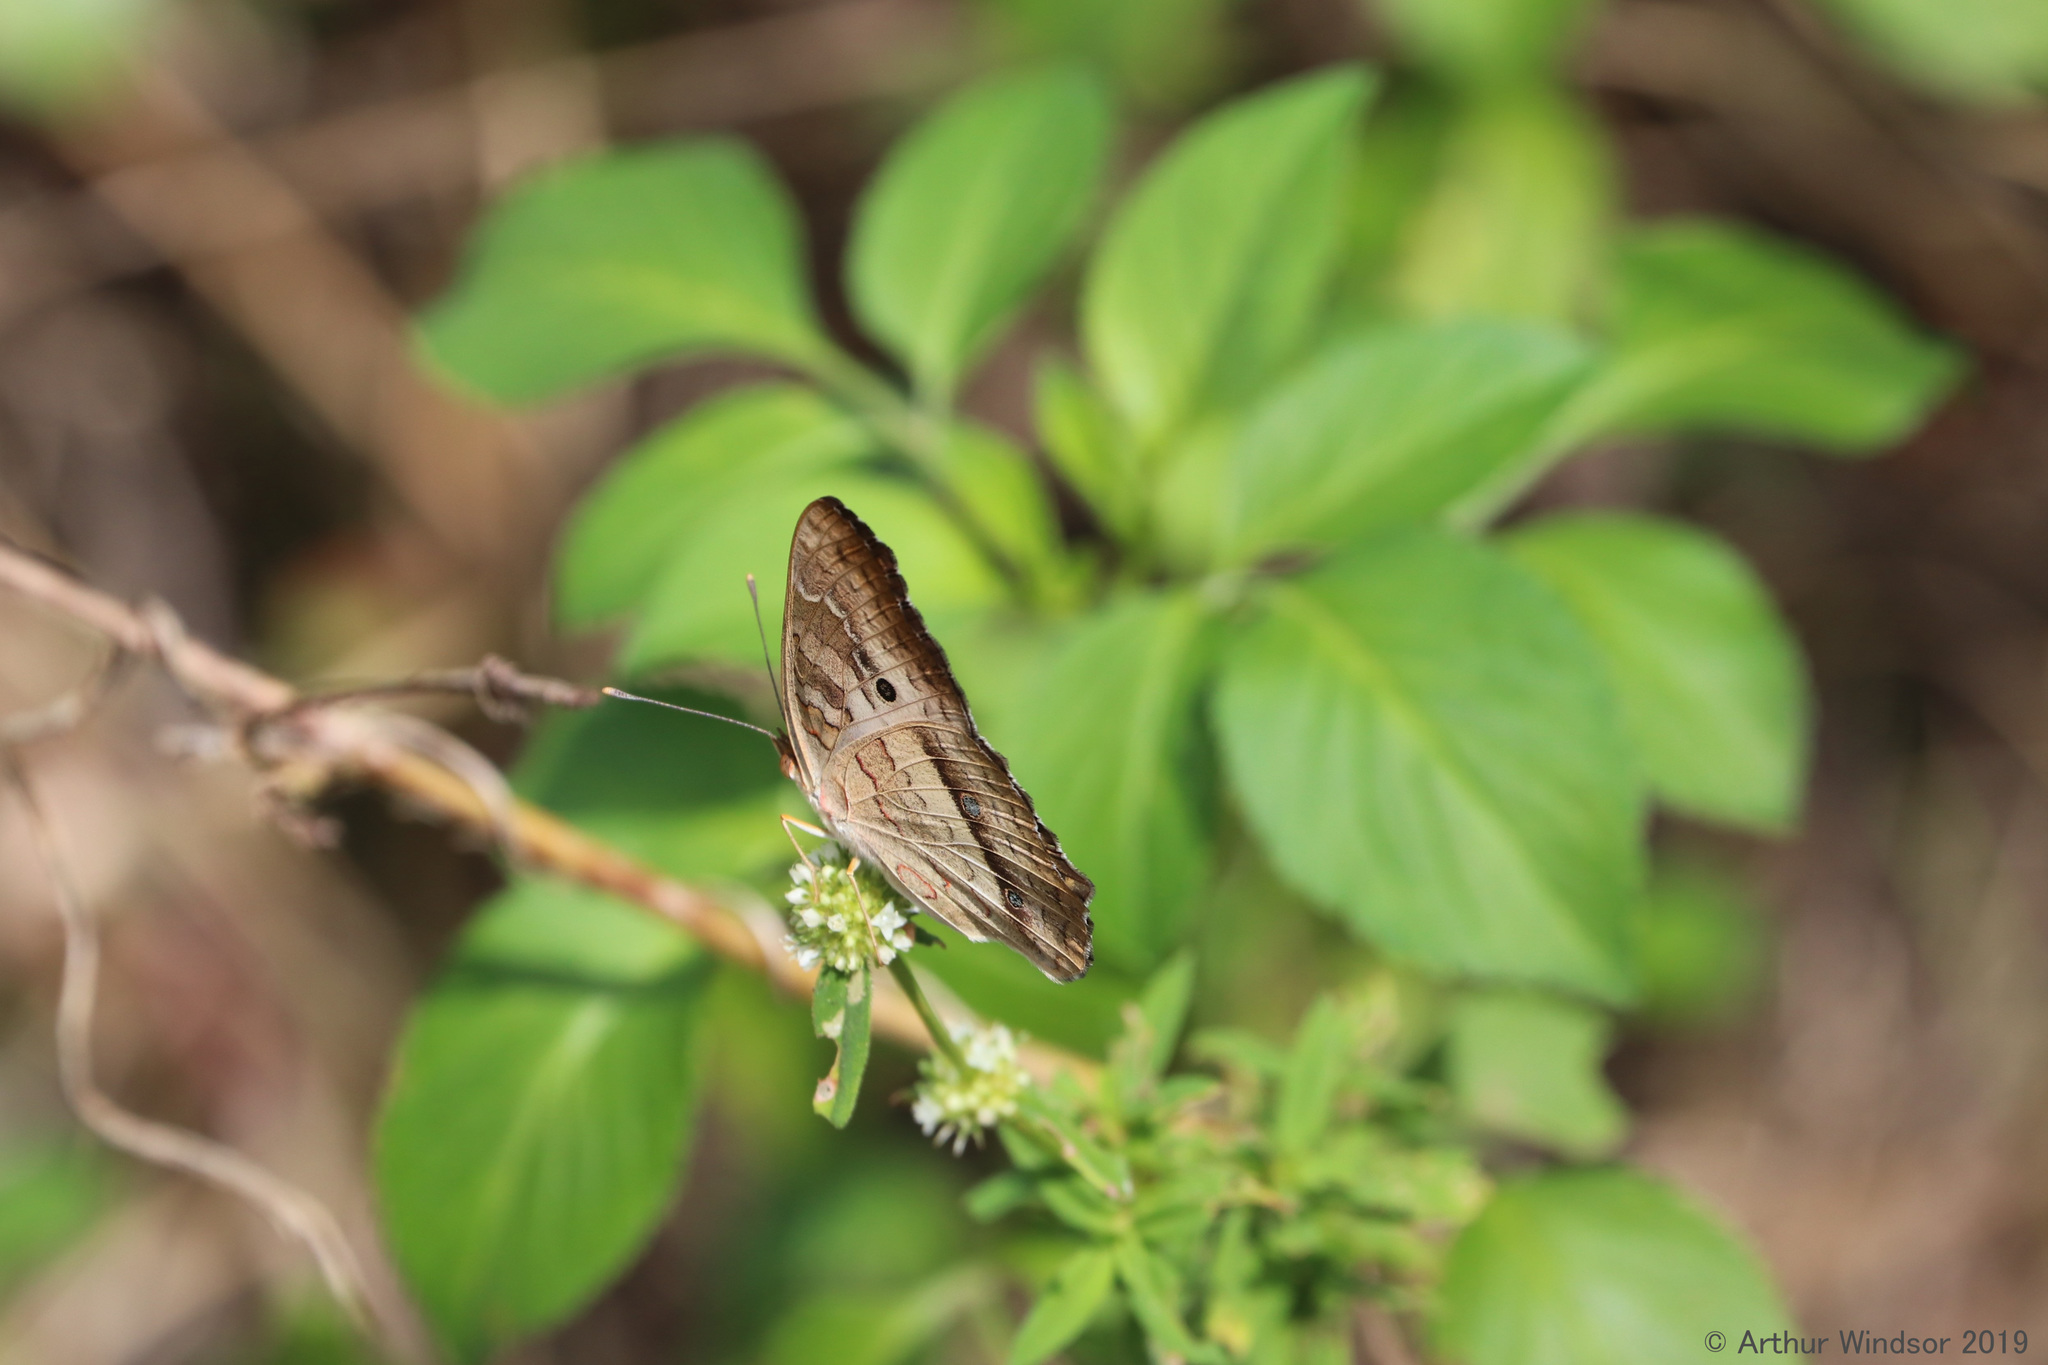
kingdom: Animalia
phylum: Arthropoda
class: Insecta
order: Lepidoptera
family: Nymphalidae
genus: Anartia
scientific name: Anartia jatrophae
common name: White peacock
